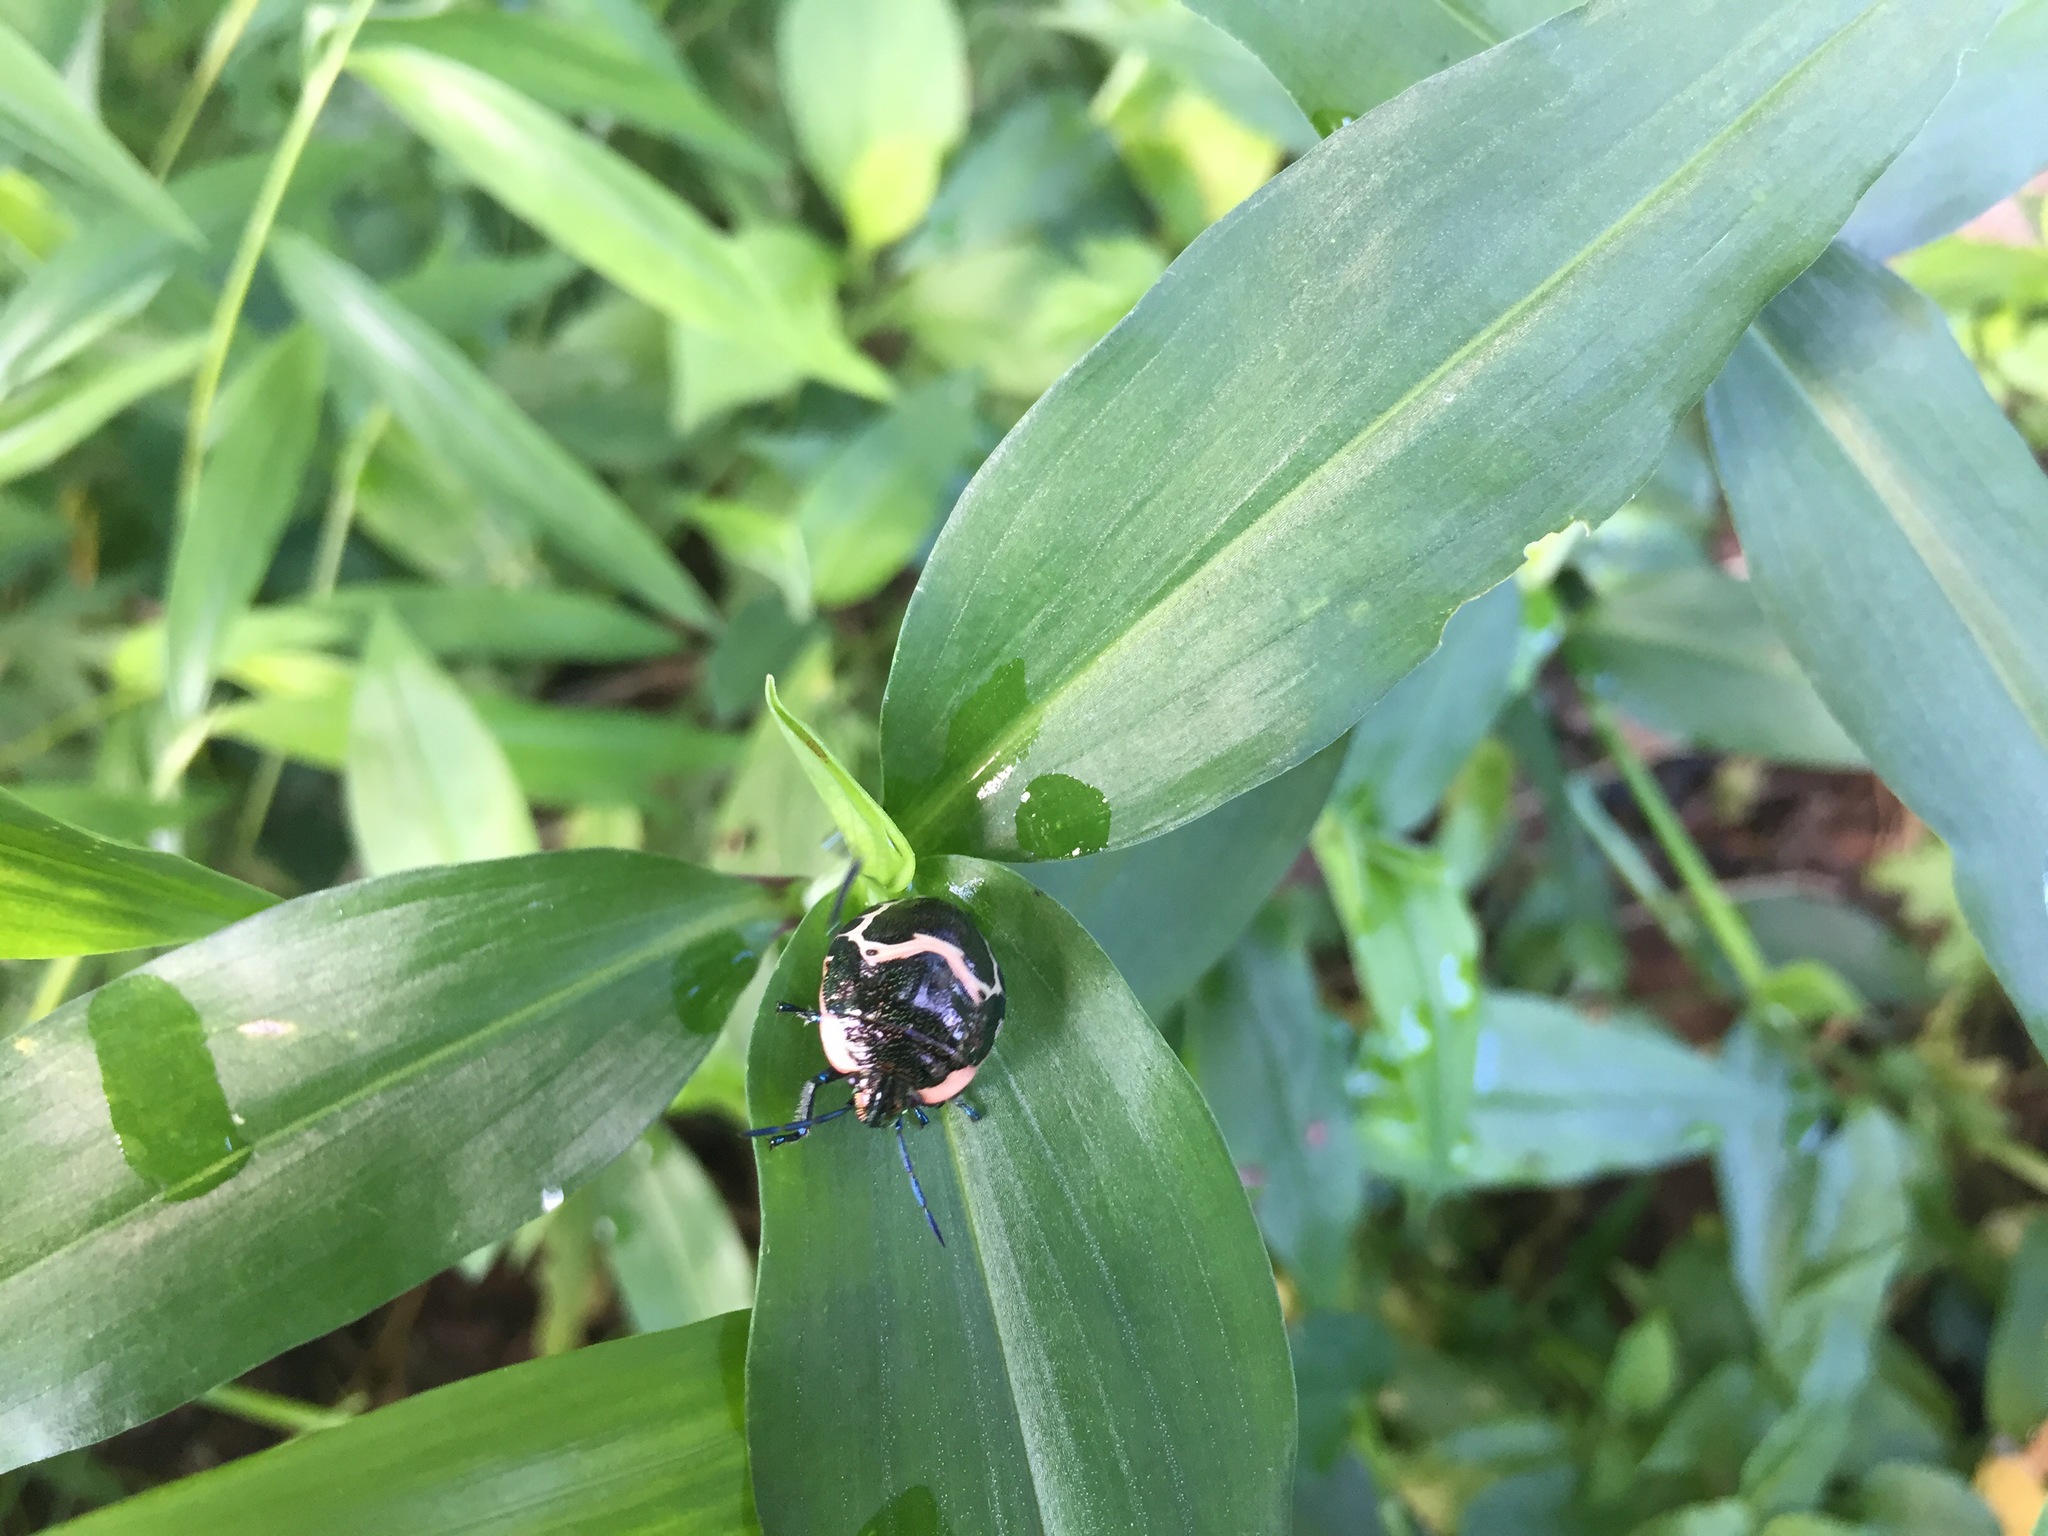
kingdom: Animalia
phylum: Arthropoda
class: Insecta
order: Hemiptera
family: Scutelleridae
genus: Poecilocoris
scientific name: Poecilocoris lewisi
